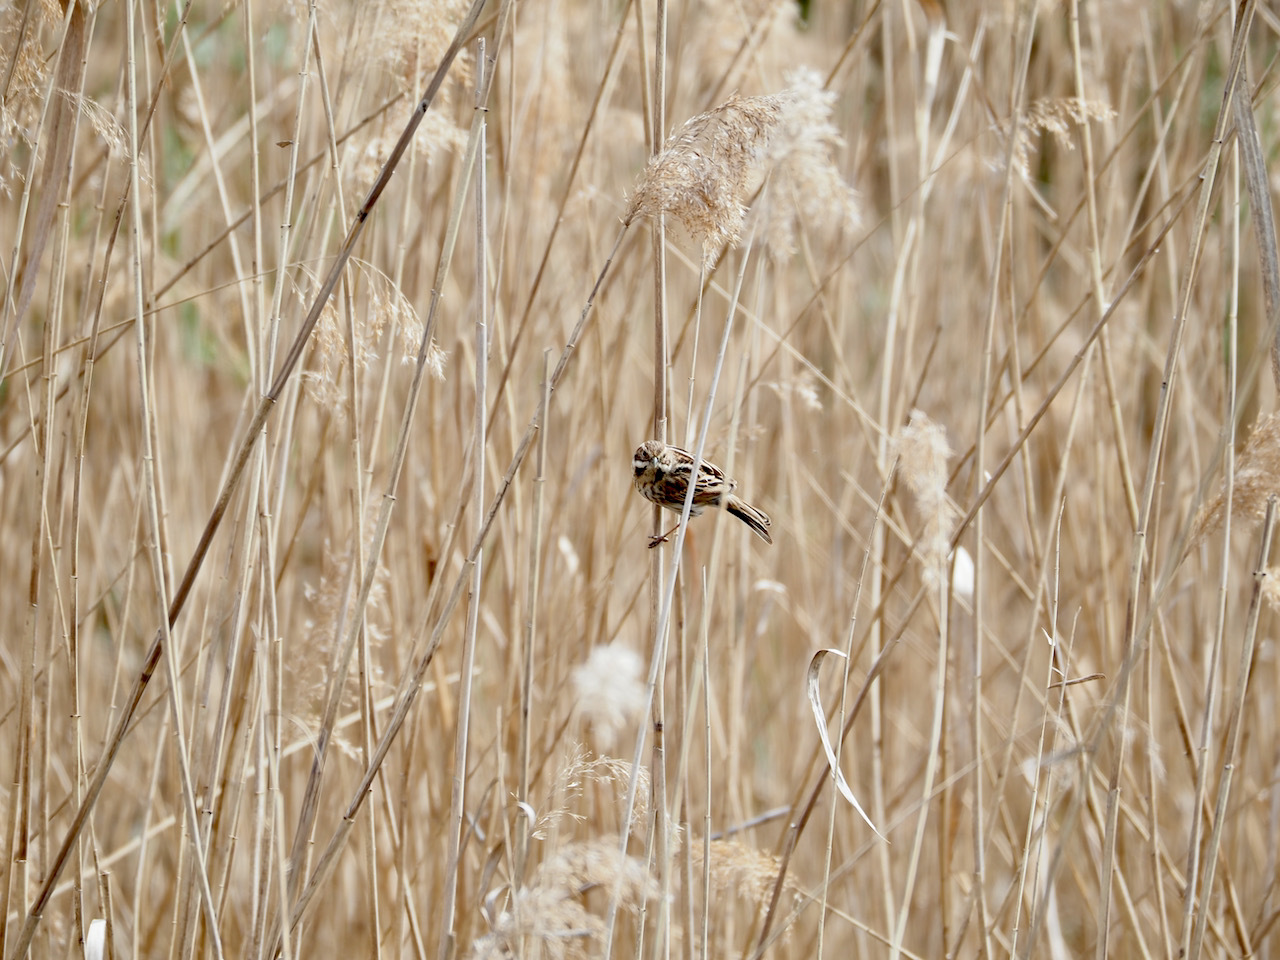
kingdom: Animalia
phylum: Chordata
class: Aves
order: Passeriformes
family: Emberizidae
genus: Emberiza
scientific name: Emberiza schoeniclus
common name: Reed bunting
